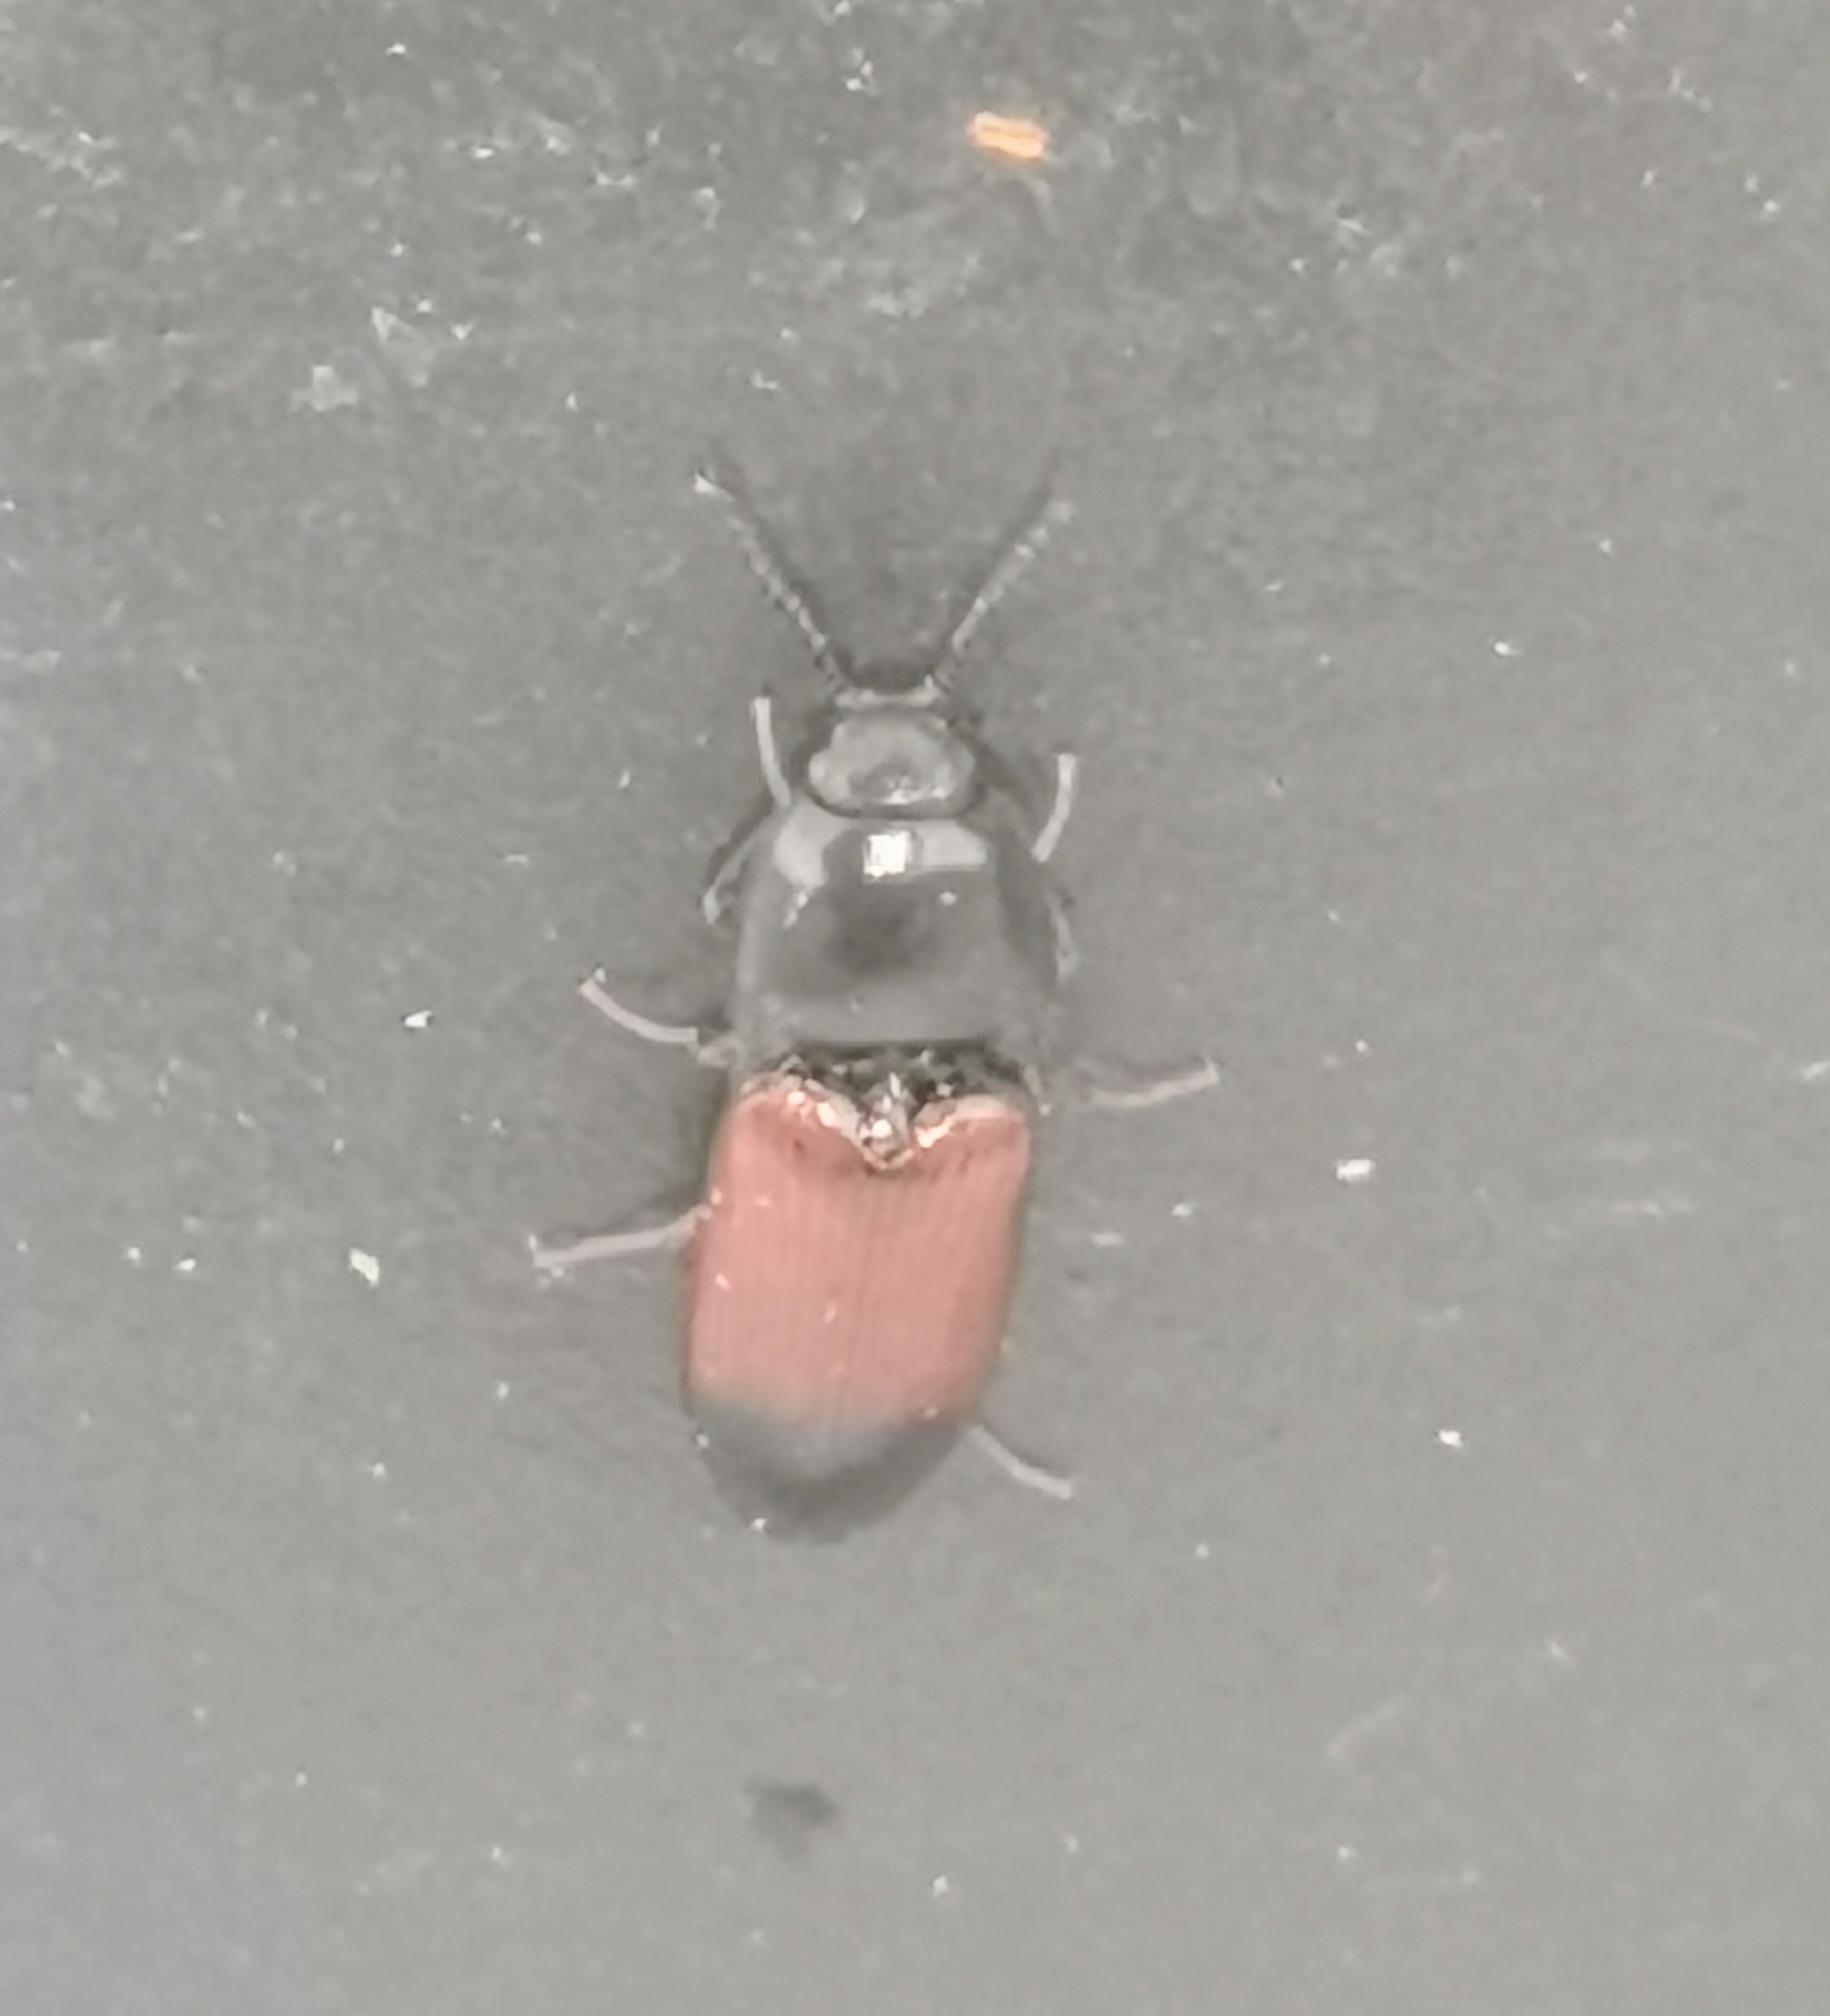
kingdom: Animalia
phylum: Arthropoda
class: Insecta
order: Coleoptera
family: Elateridae
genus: Ampedus
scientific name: Ampedus balteatus
